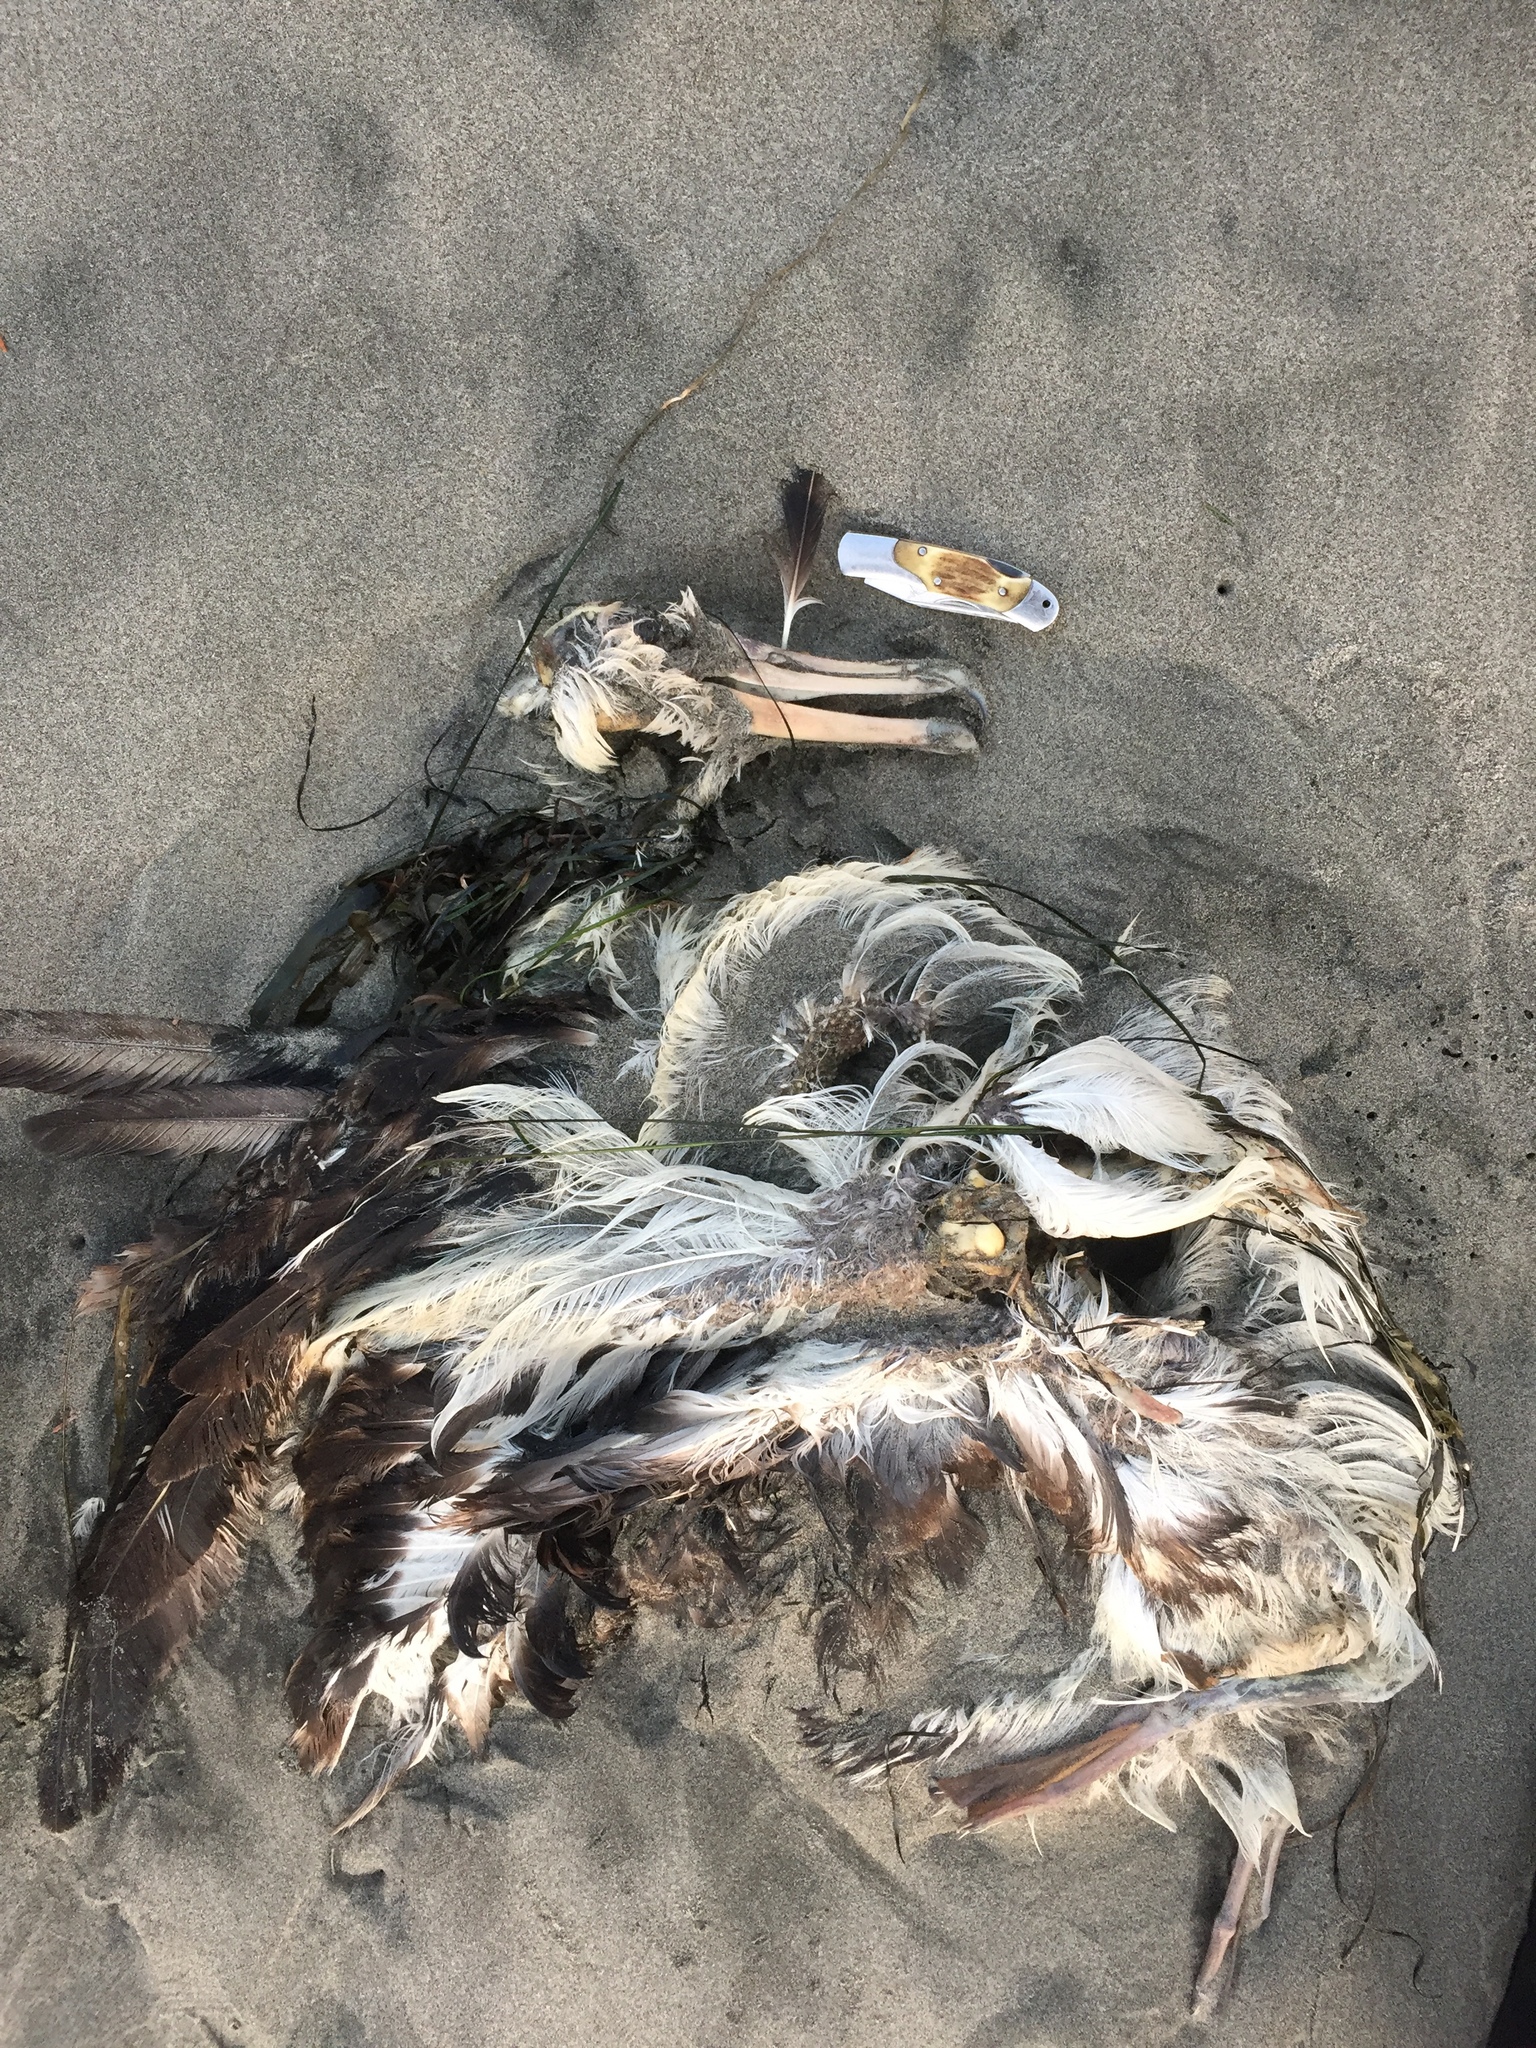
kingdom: Animalia
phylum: Chordata
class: Aves
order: Procellariiformes
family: Diomedeidae
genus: Phoebastria
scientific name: Phoebastria immutabilis
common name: Laysan albatross
